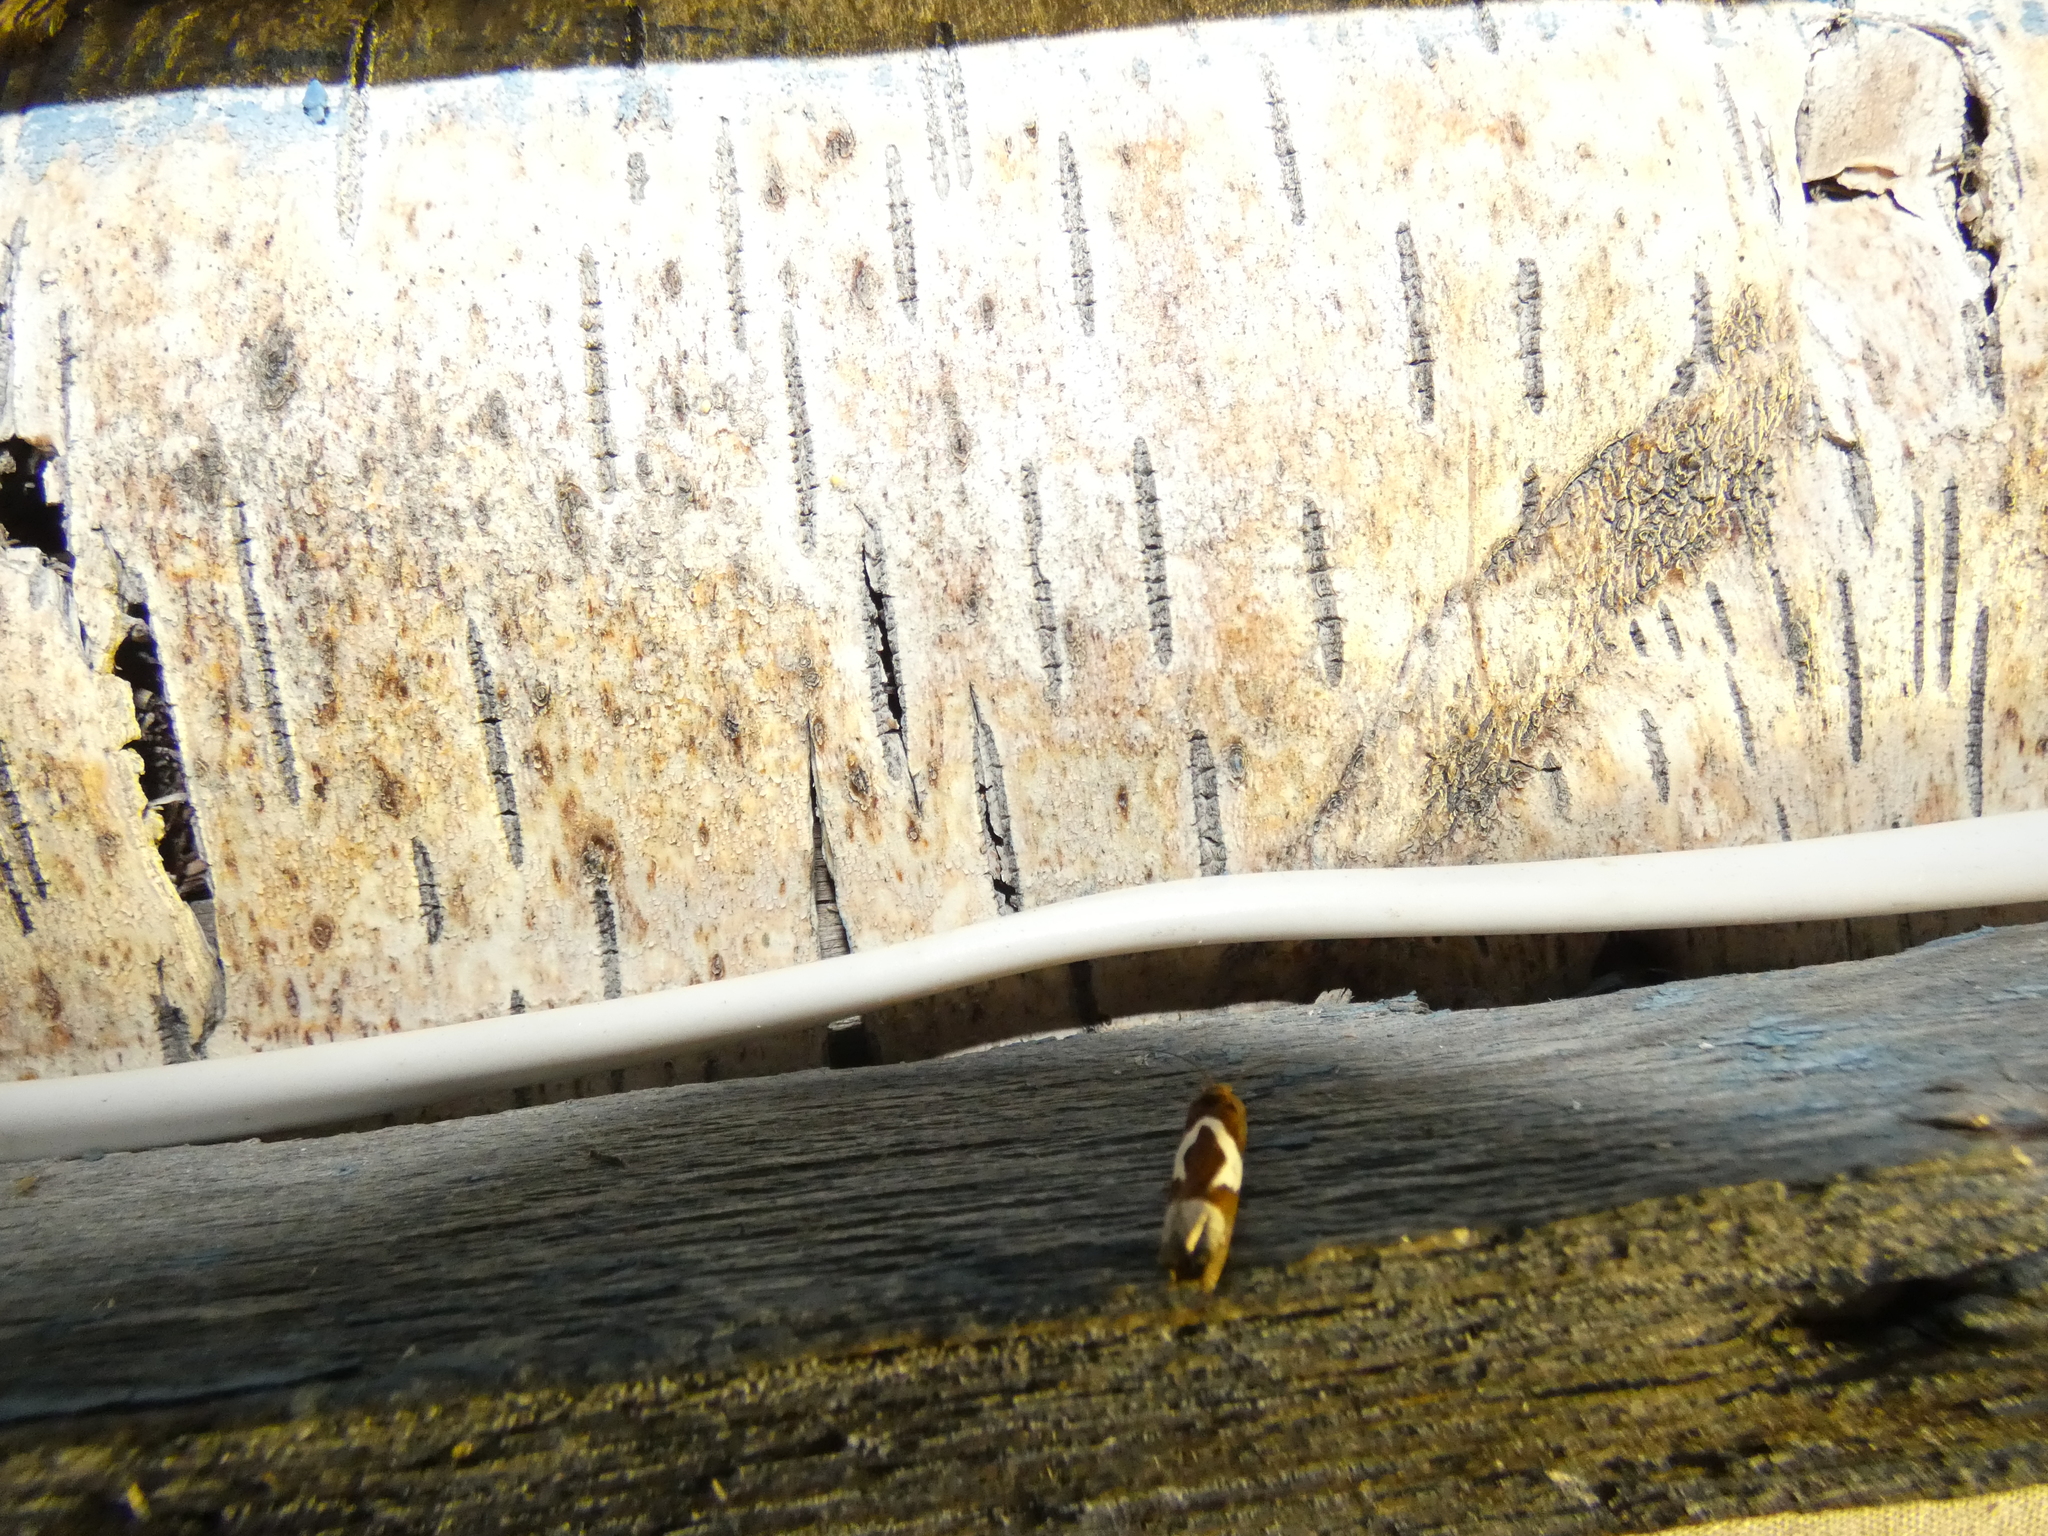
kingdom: Animalia
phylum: Arthropoda
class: Insecta
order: Lepidoptera
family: Tortricidae
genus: Epiblema
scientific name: Epiblema foenella
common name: White-foot bell
